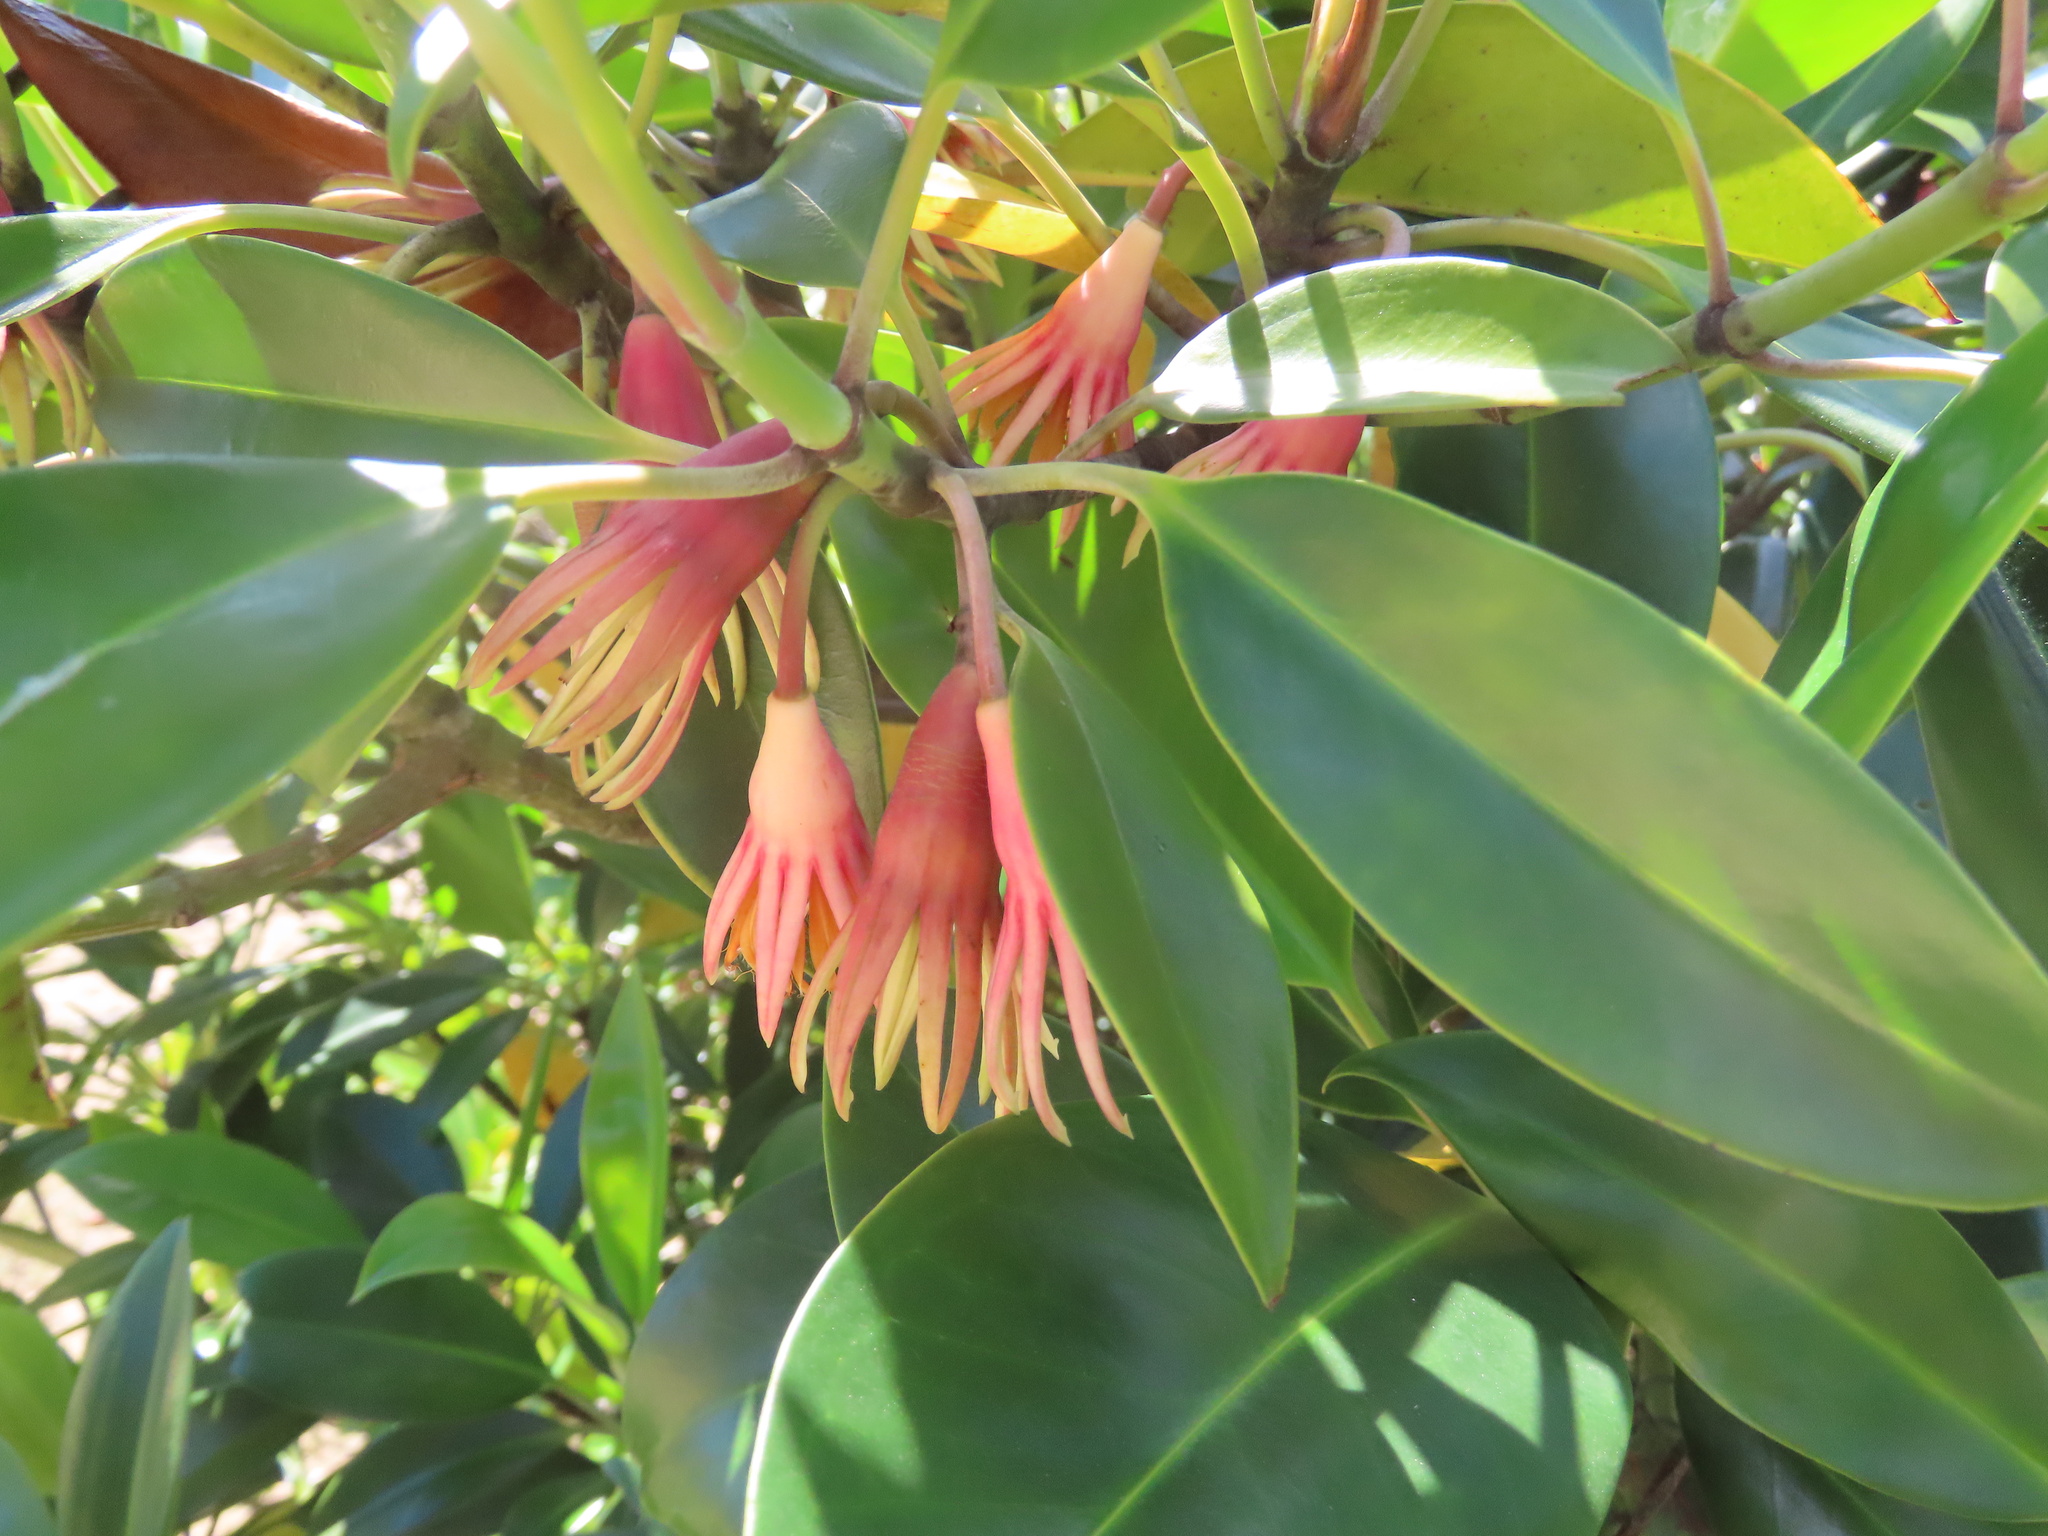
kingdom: Plantae
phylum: Tracheophyta
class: Magnoliopsida
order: Malpighiales
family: Rhizophoraceae
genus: Bruguiera
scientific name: Bruguiera gymnorhiza
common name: Oriental mangrove
